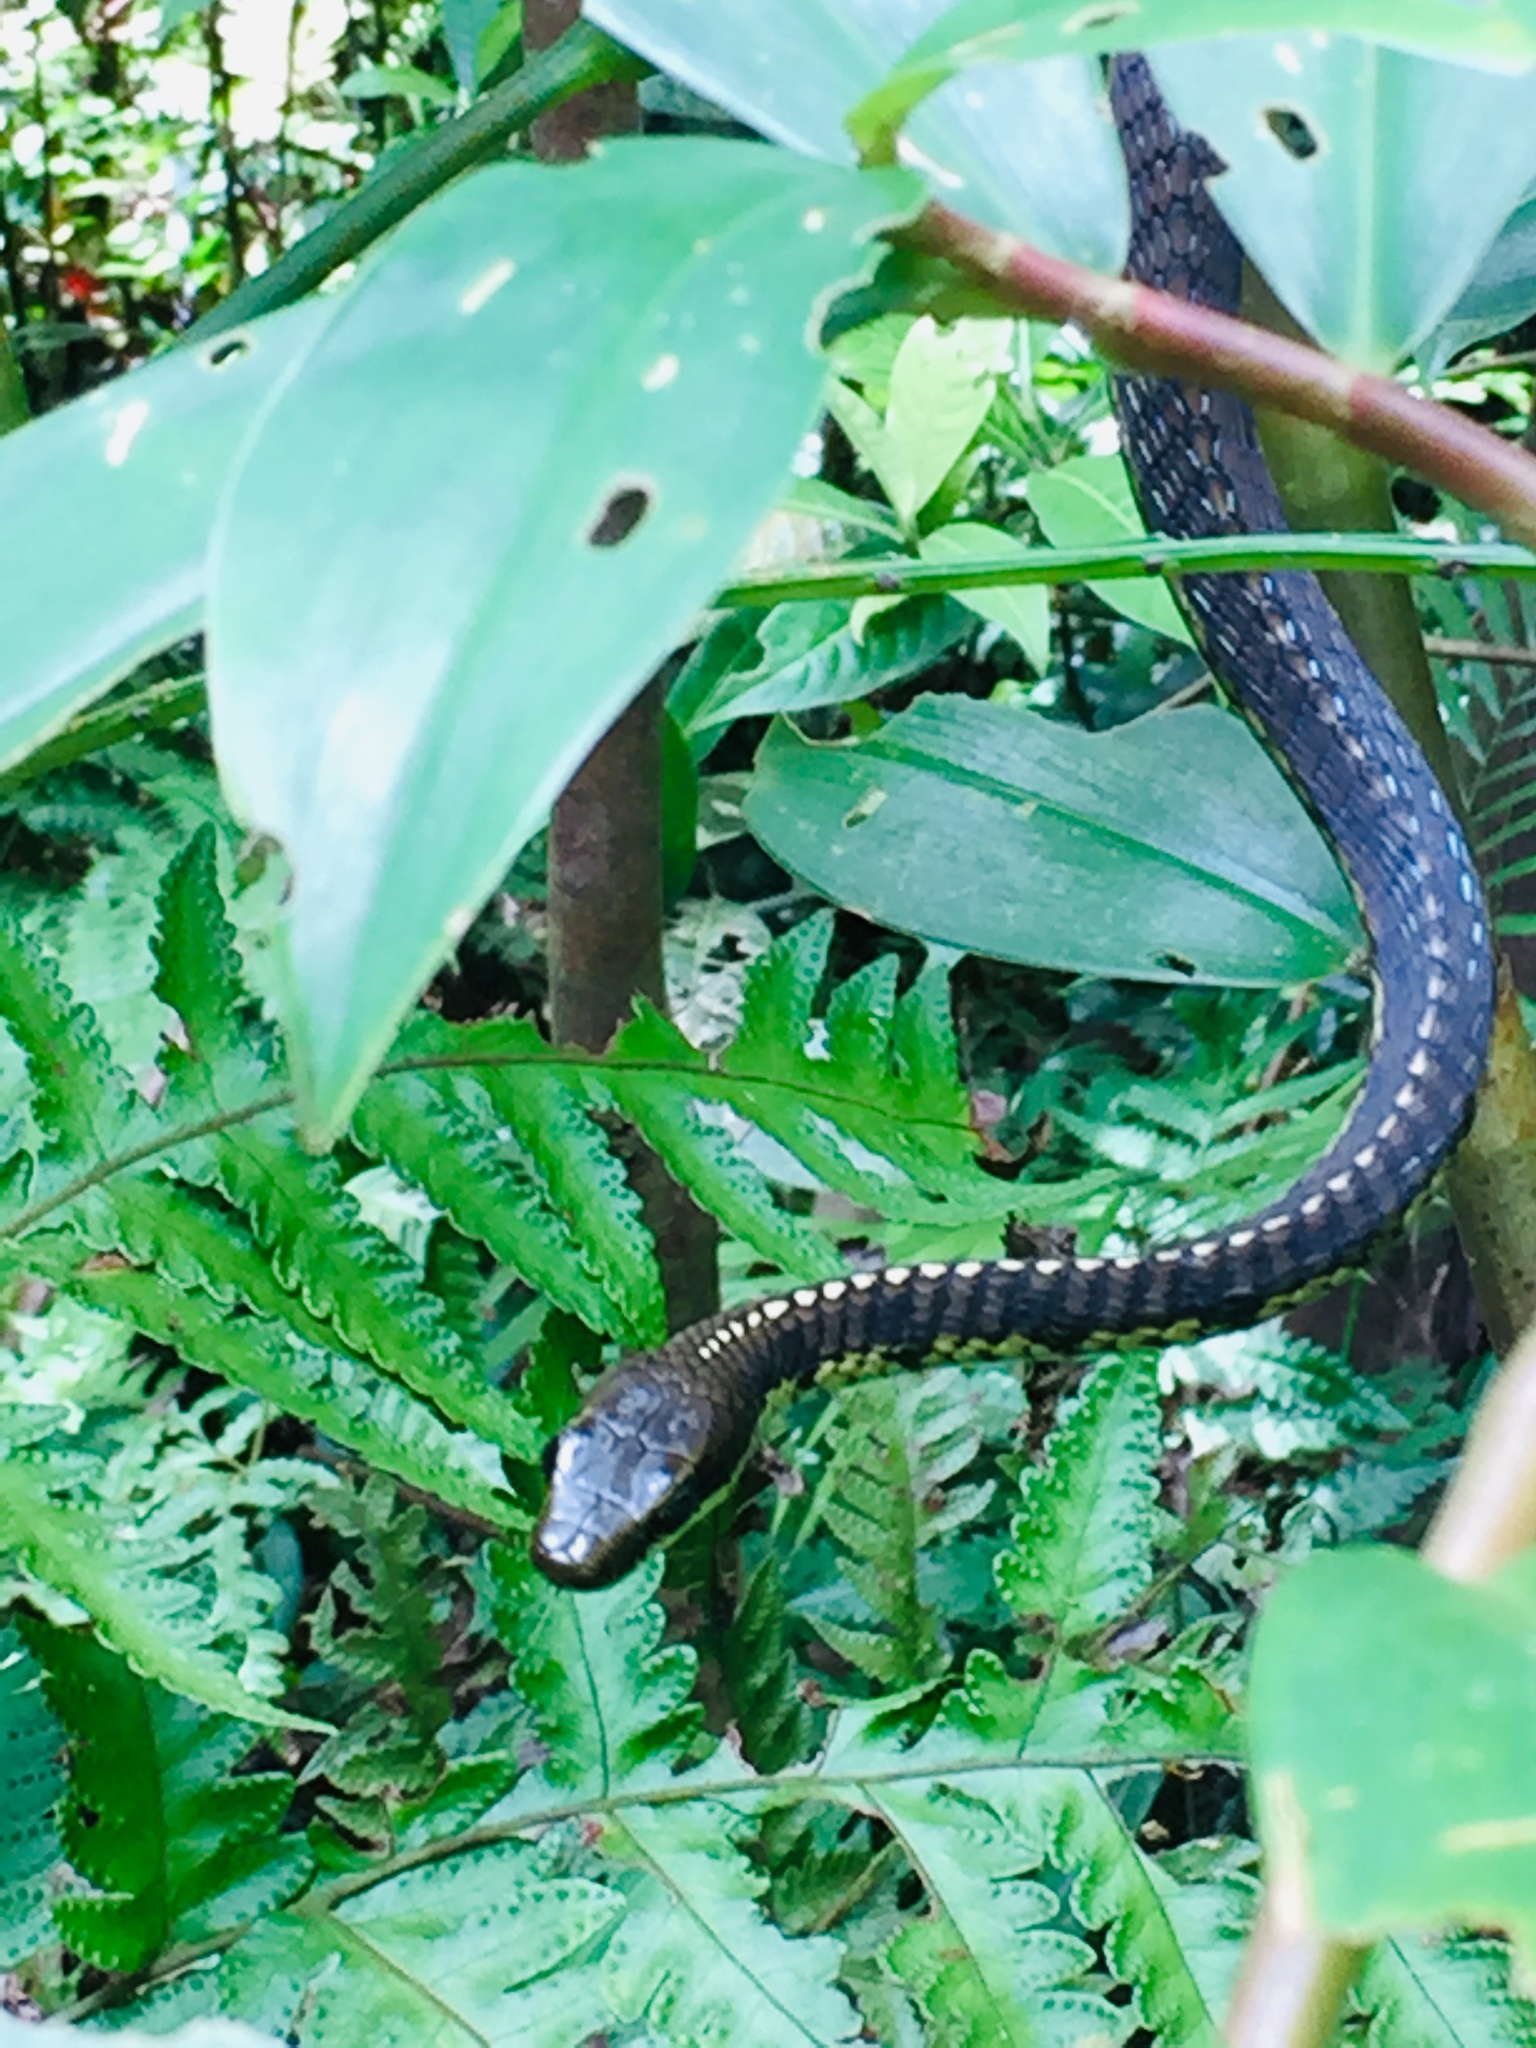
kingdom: Animalia
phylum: Chordata
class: Squamata
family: Colubridae
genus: Dendrelaphis
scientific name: Dendrelaphis schokari
